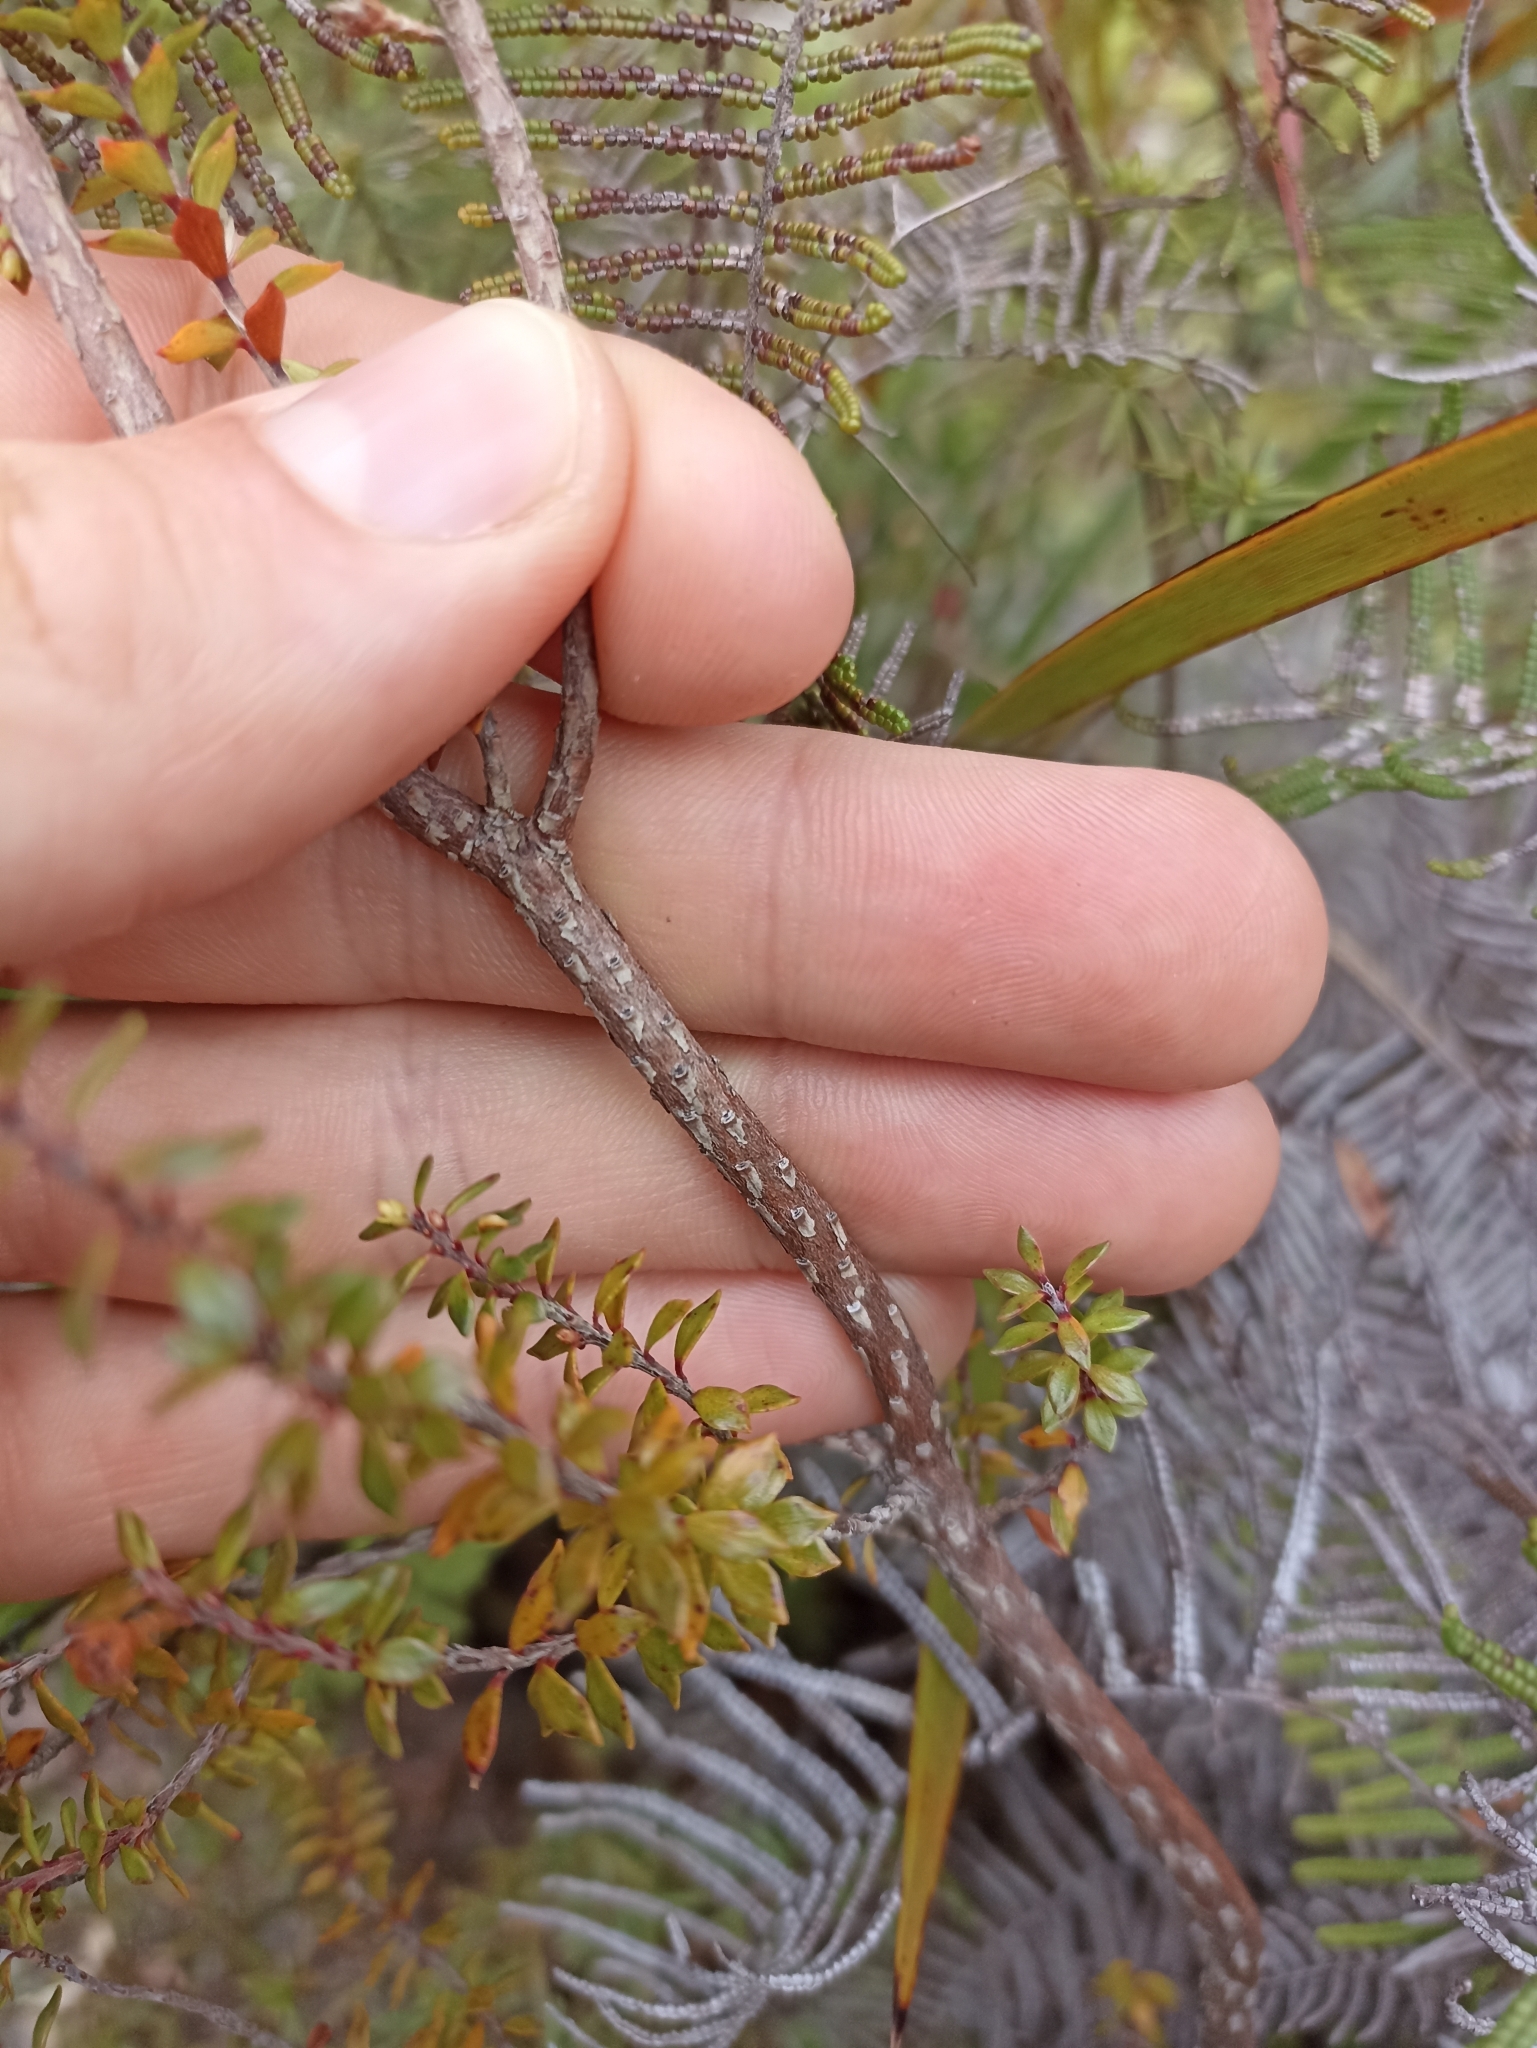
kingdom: Plantae
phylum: Tracheophyta
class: Magnoliopsida
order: Ericales
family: Ericaceae
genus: Epacris
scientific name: Epacris pauciflora
